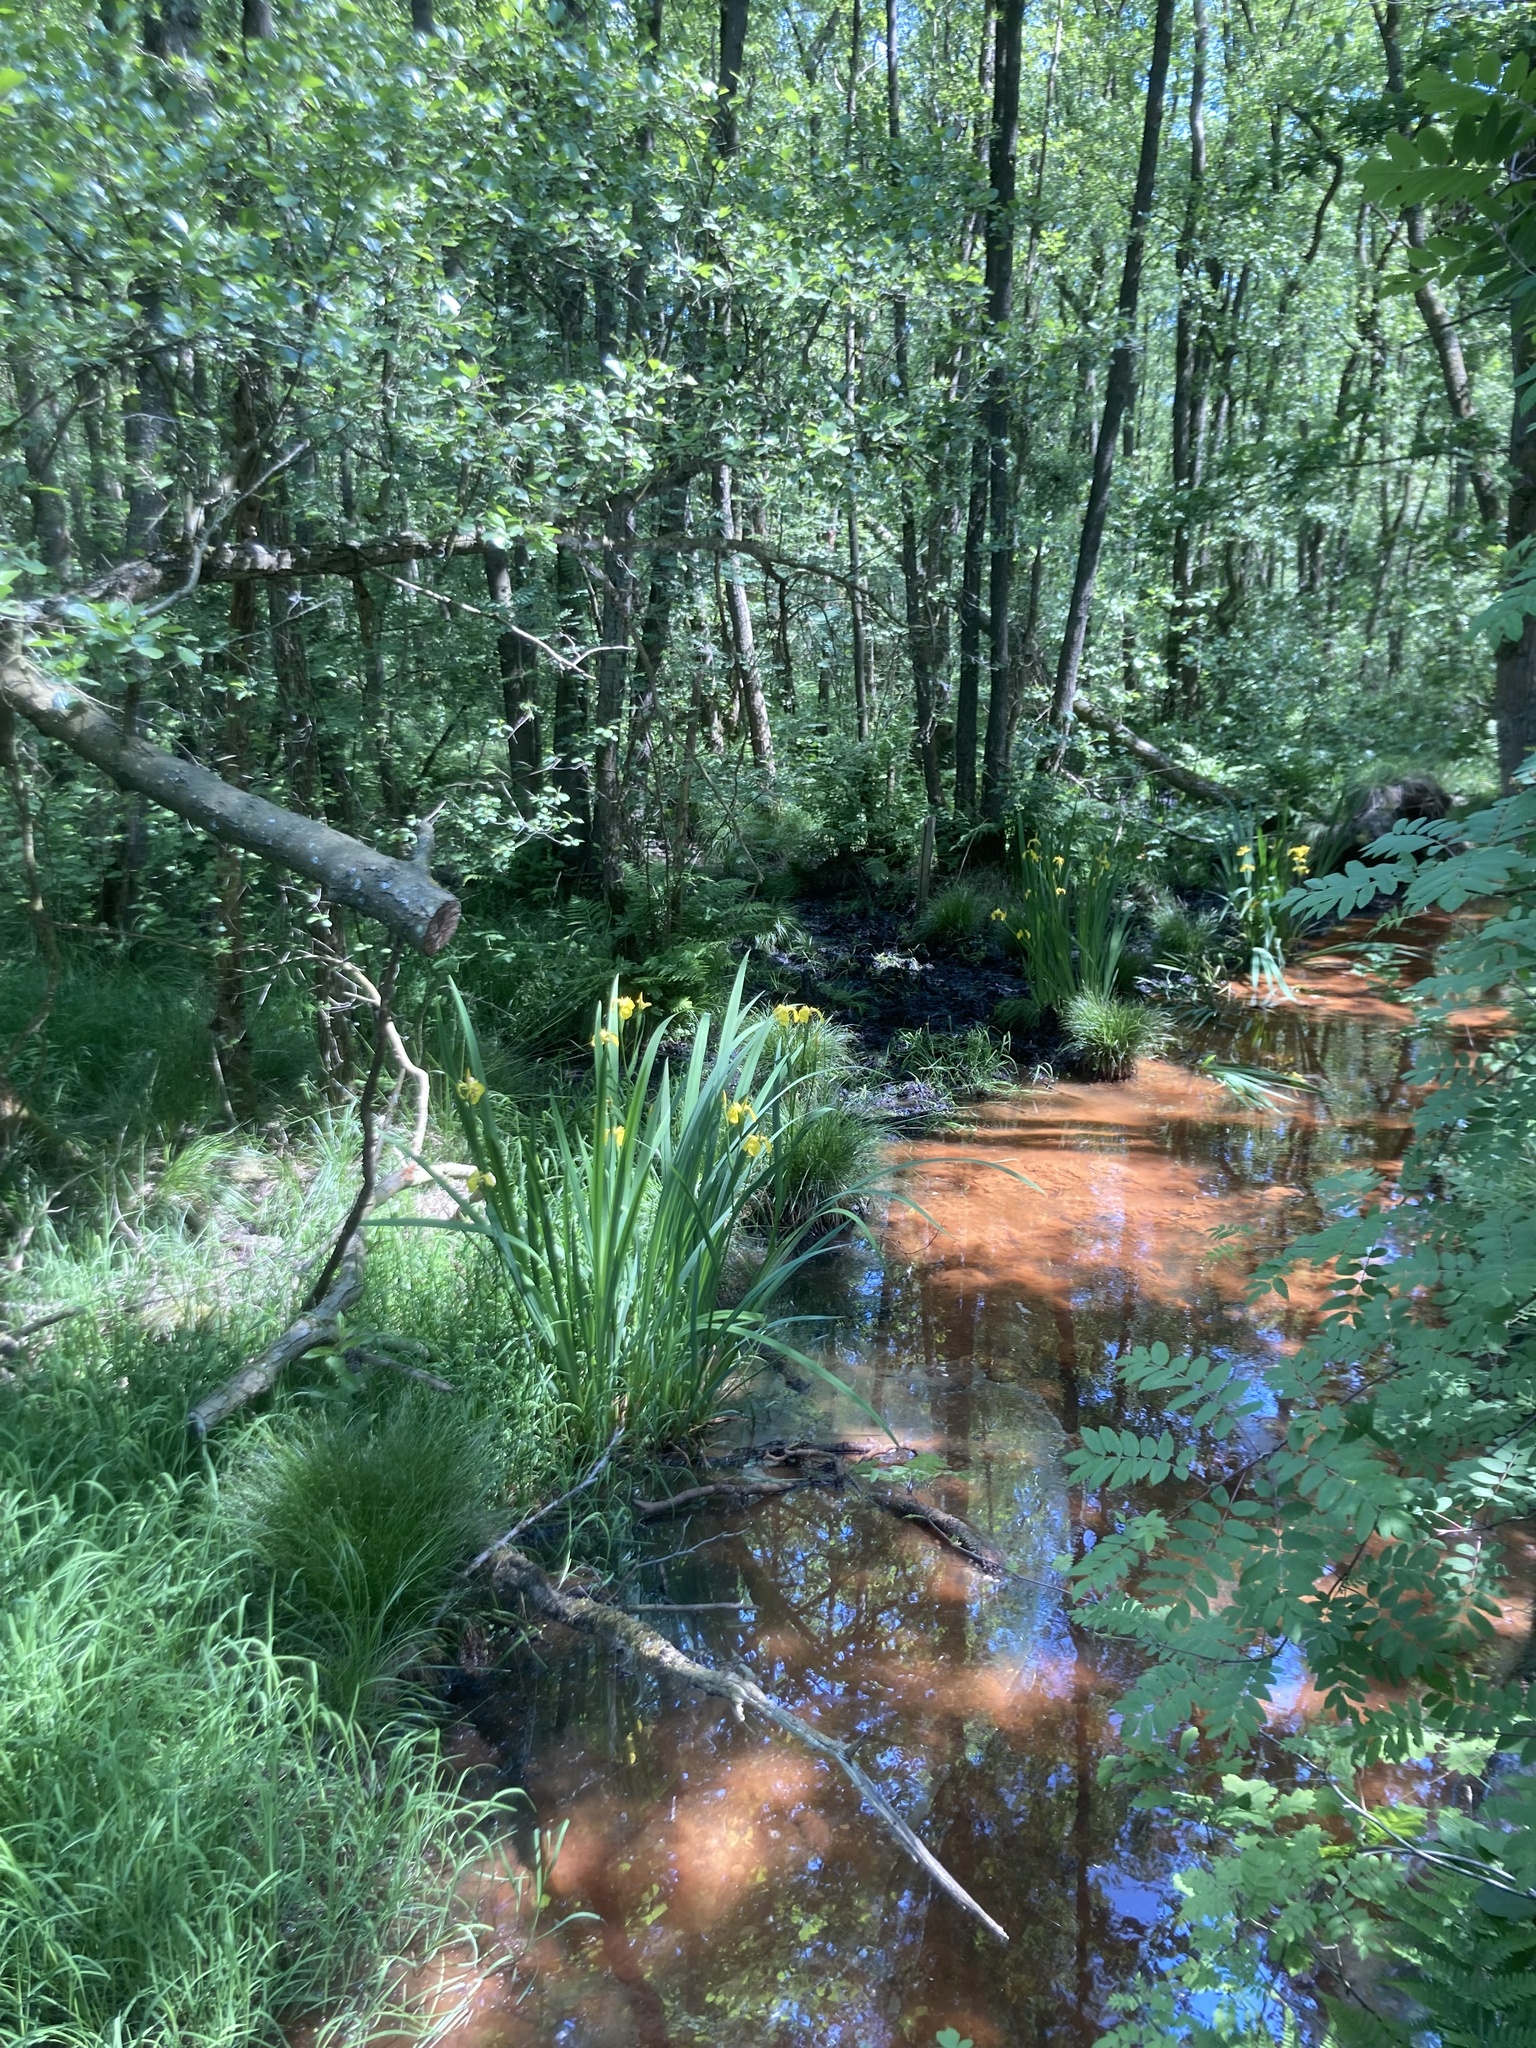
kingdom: Plantae
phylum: Tracheophyta
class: Liliopsida
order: Asparagales
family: Iridaceae
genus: Iris
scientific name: Iris pseudacorus
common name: Yellow flag
